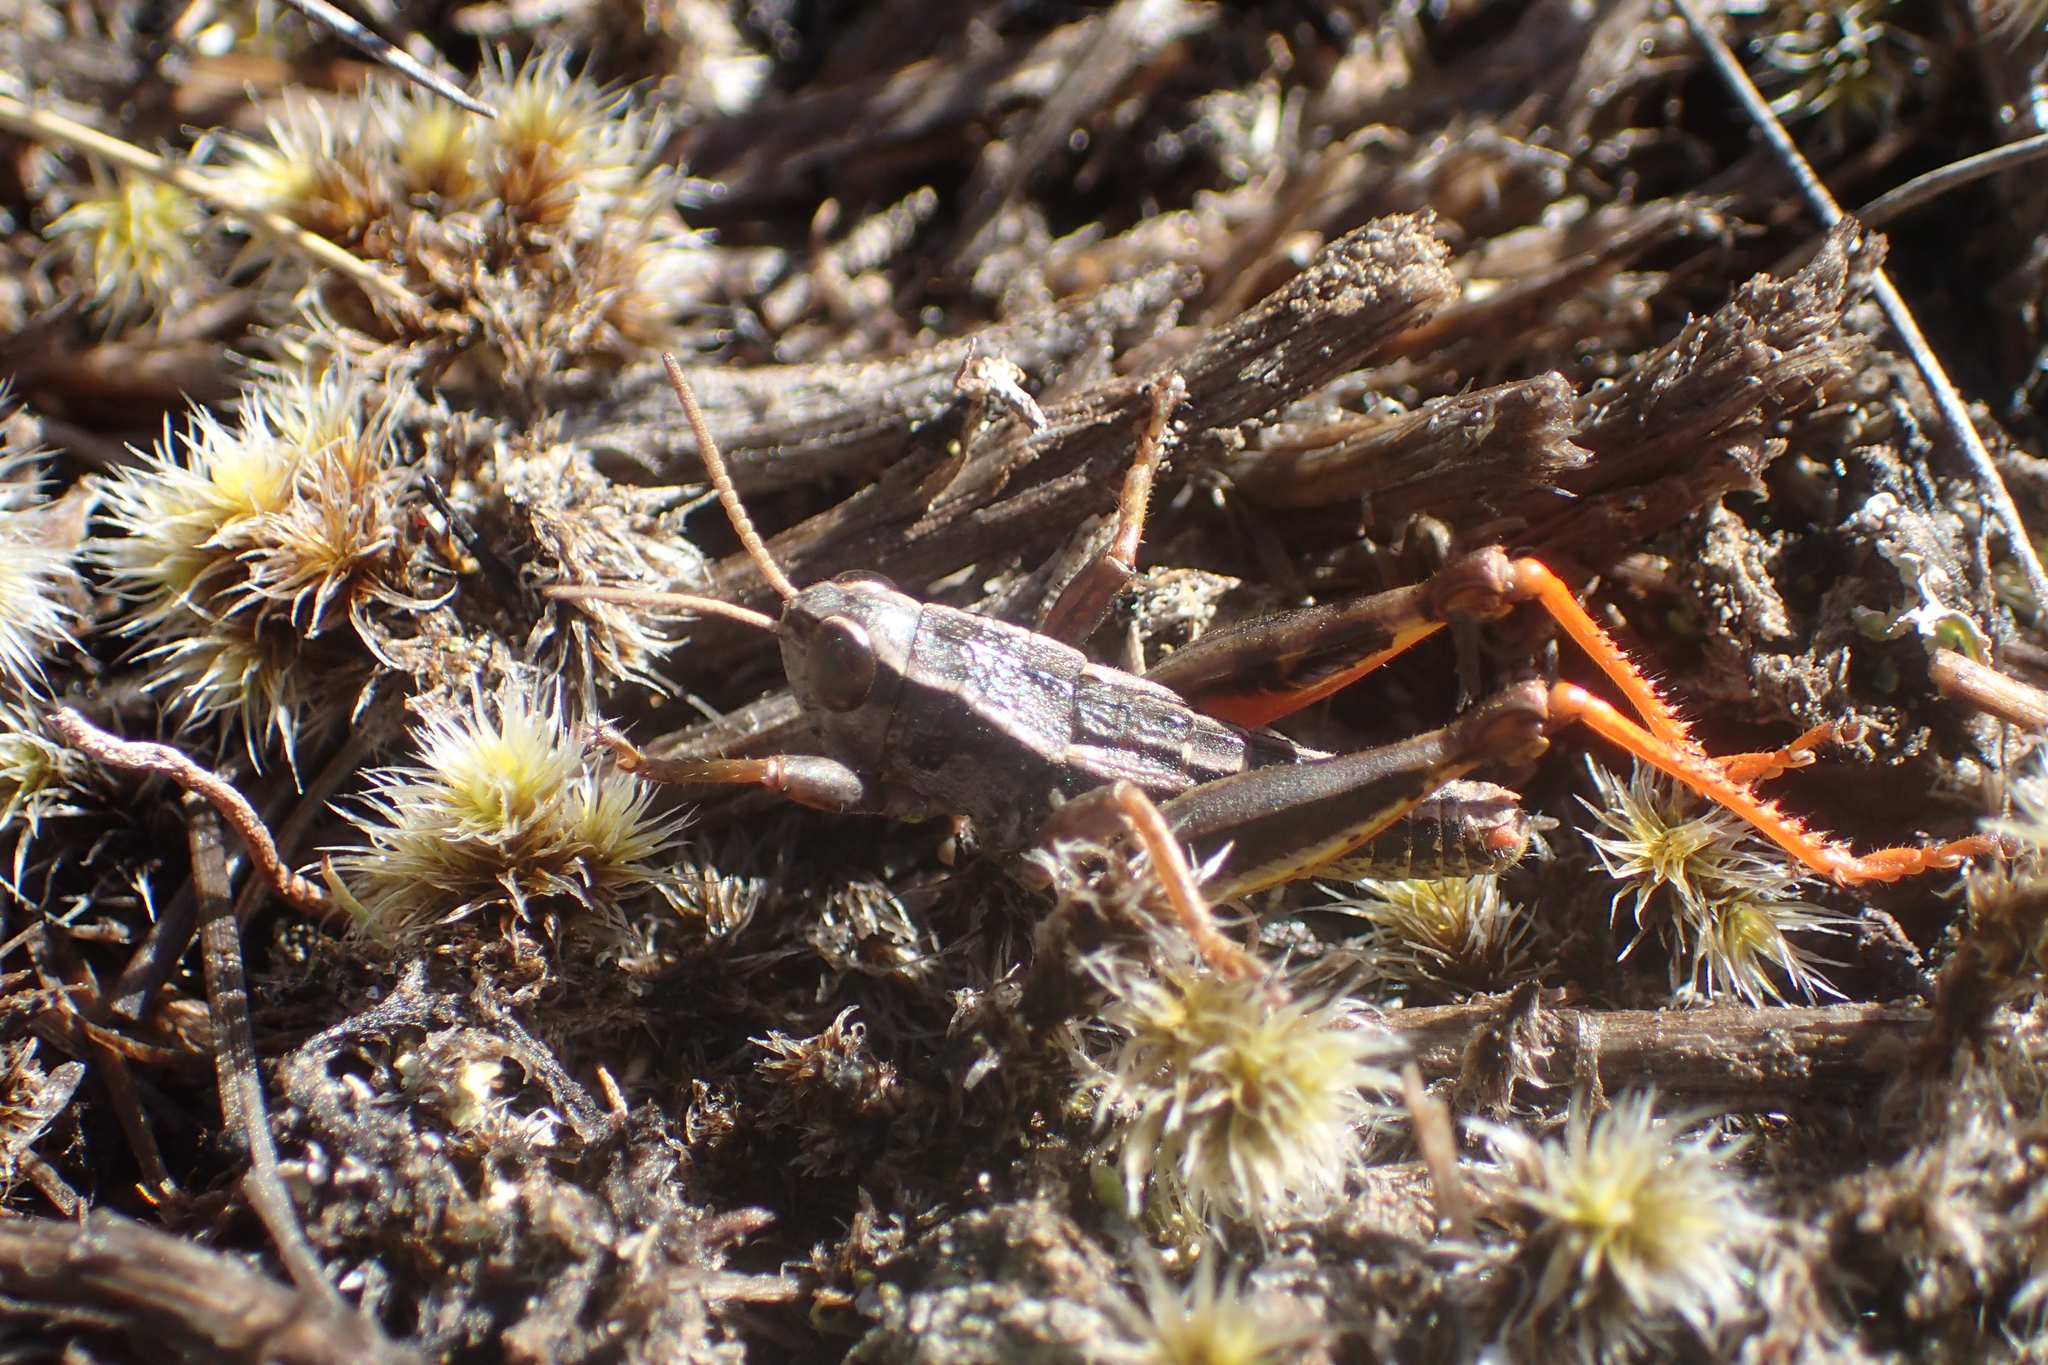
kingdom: Animalia
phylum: Arthropoda
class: Insecta
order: Orthoptera
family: Acrididae
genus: Sigaus
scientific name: Sigaus
